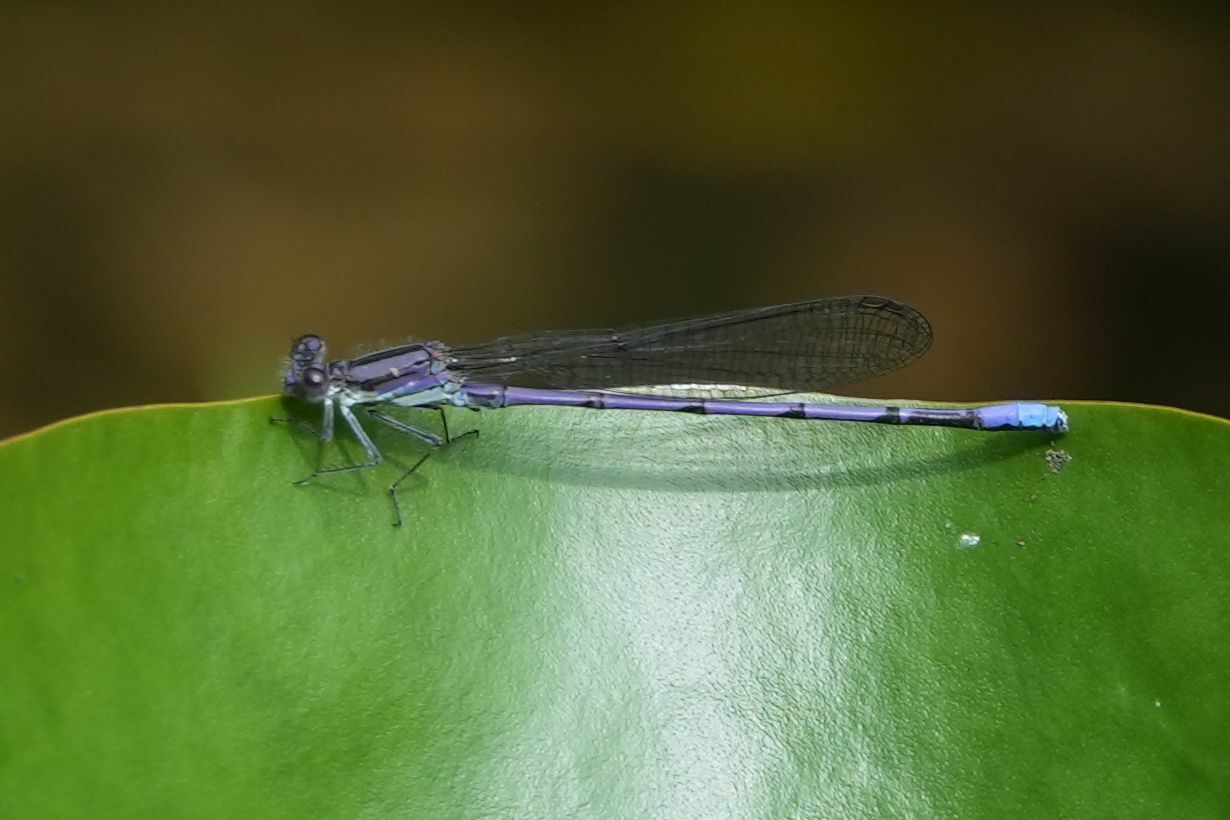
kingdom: Animalia
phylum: Arthropoda
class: Insecta
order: Odonata
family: Coenagrionidae
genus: Argia
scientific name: Argia fumipennis
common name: Variable dancer
